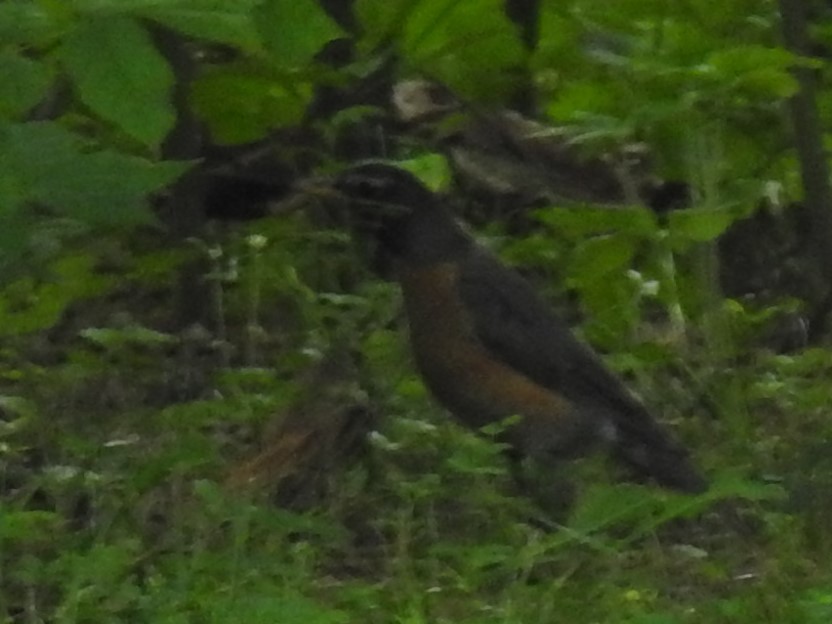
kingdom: Animalia
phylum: Chordata
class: Aves
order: Passeriformes
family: Turdidae
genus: Turdus
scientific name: Turdus migratorius
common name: American robin
